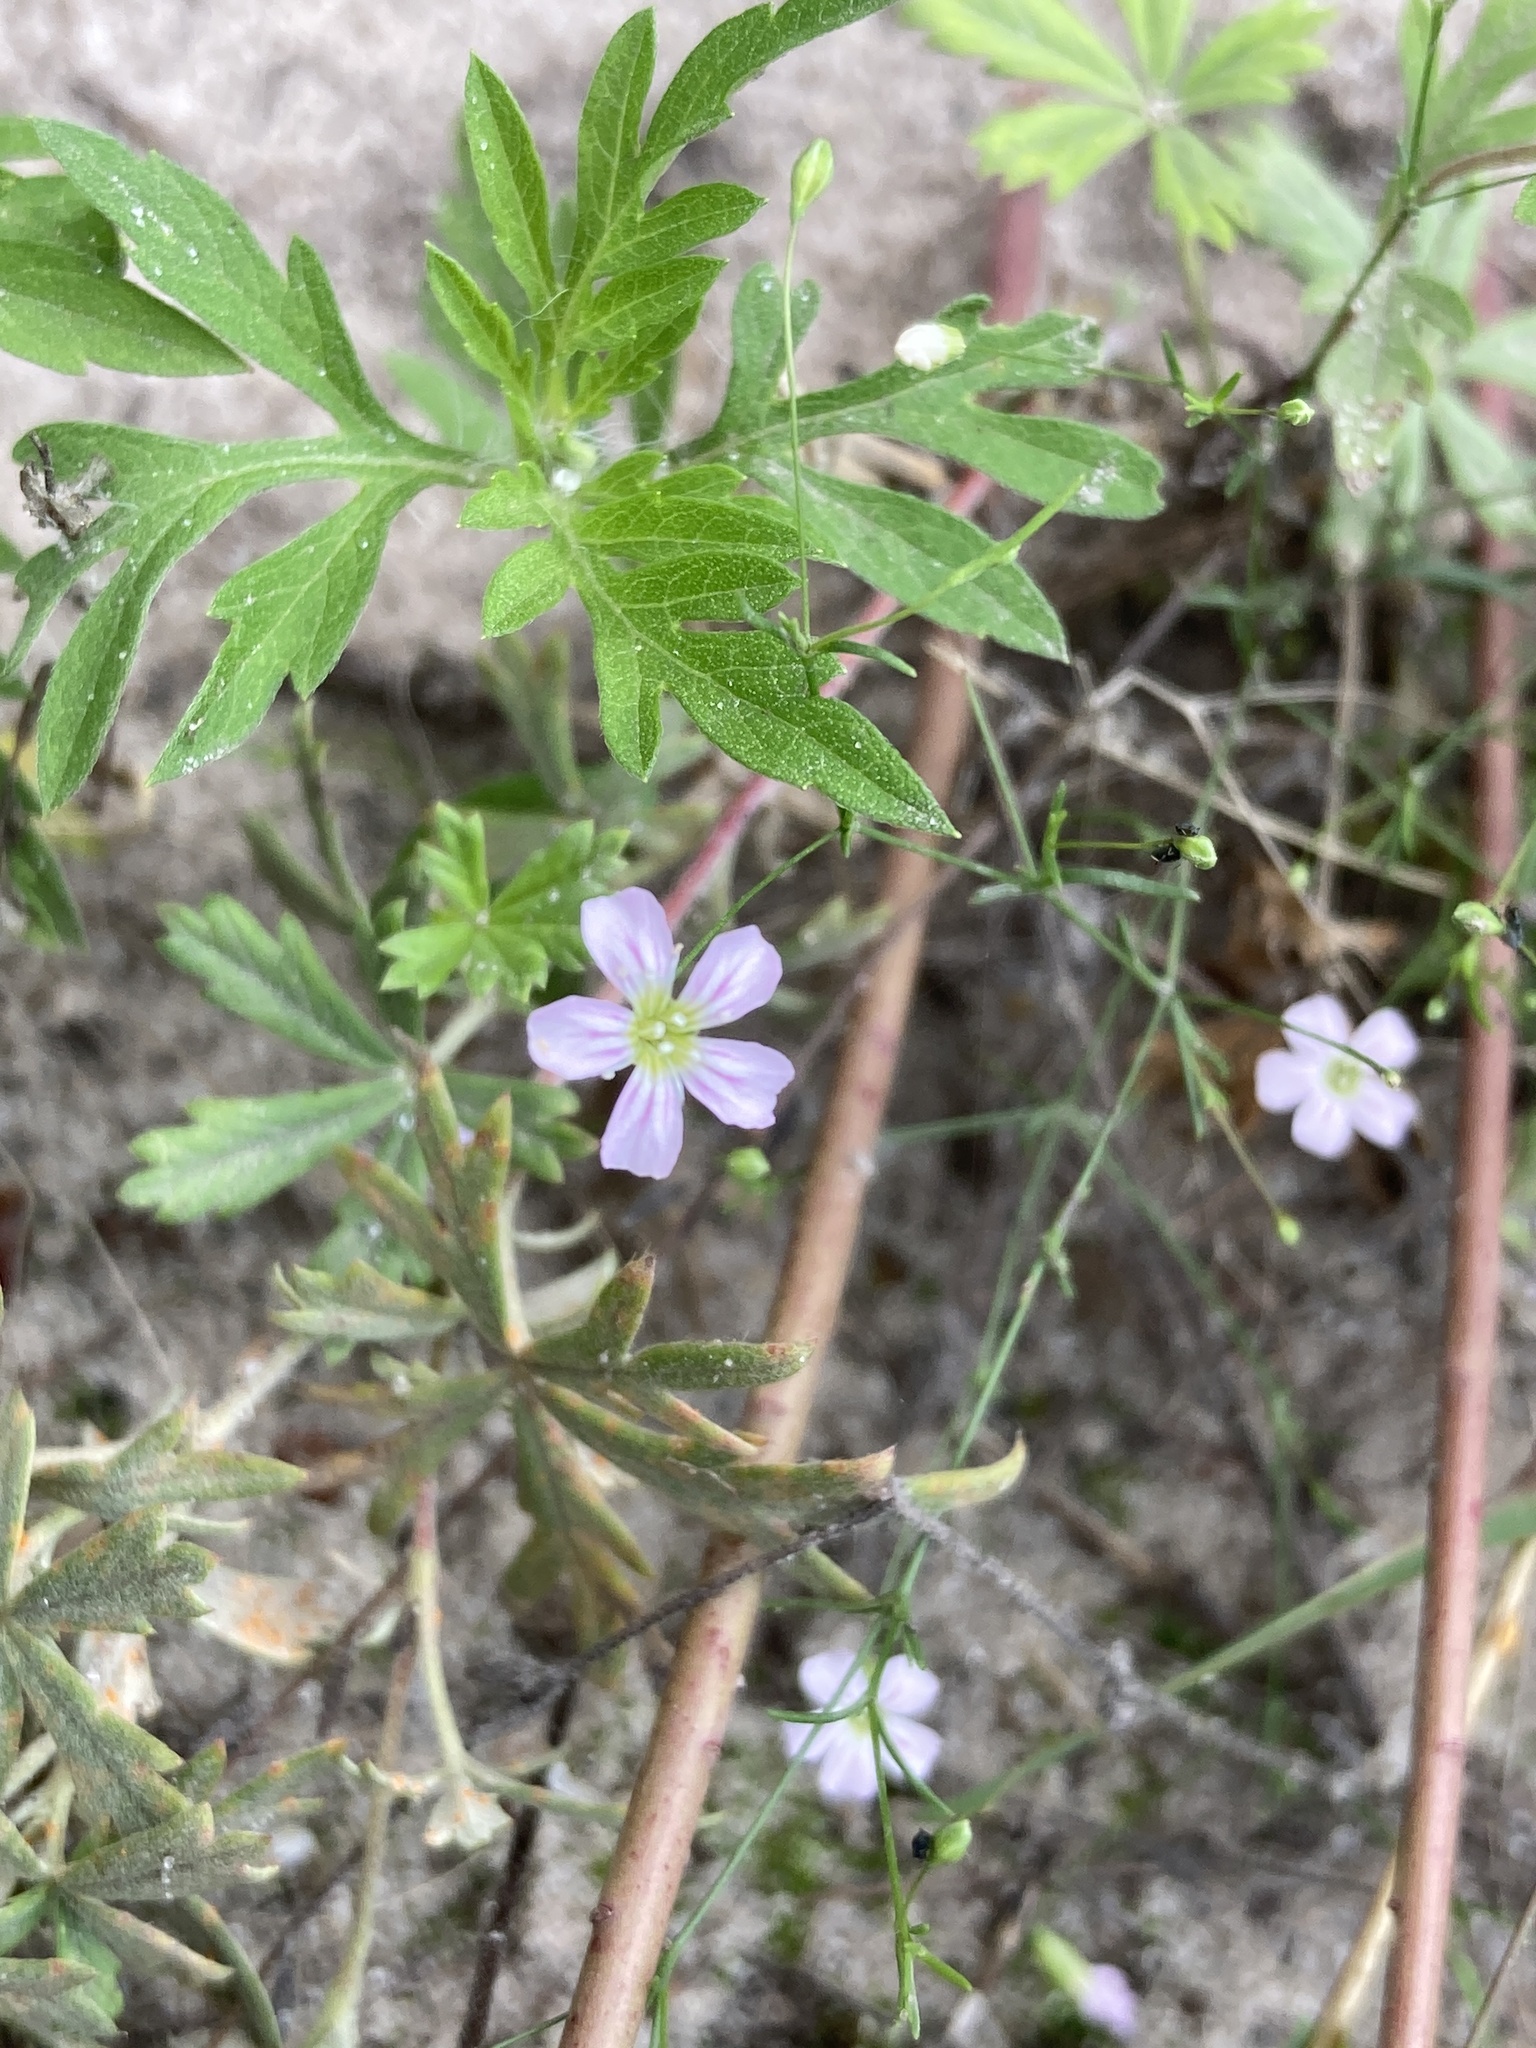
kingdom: Plantae
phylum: Tracheophyta
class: Magnoliopsida
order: Caryophyllales
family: Caryophyllaceae
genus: Psammophiliella
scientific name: Psammophiliella muralis
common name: Cushion baby's-breath
